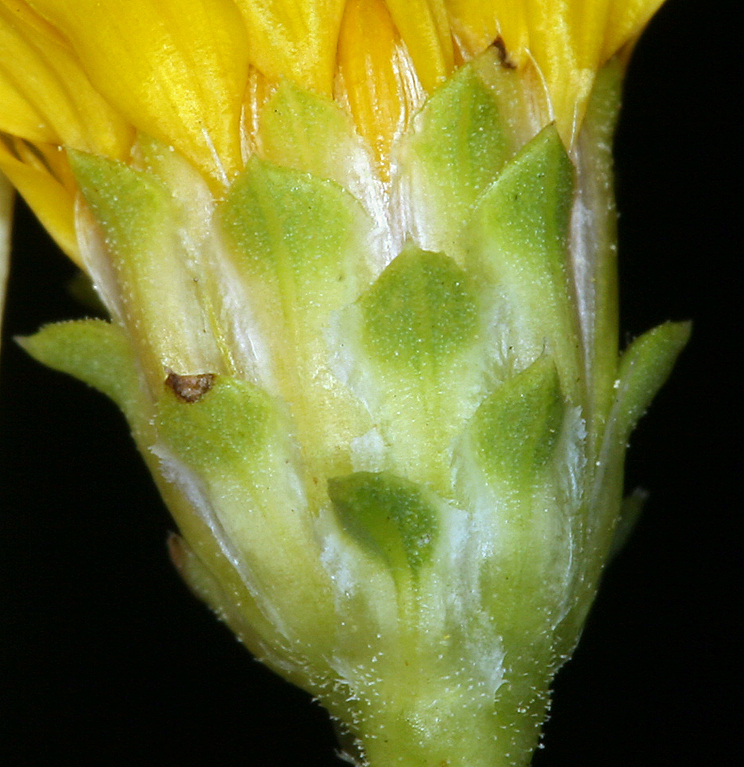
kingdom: Plantae
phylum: Tracheophyta
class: Magnoliopsida
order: Asterales
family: Asteraceae
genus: Pyrrocoma
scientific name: Pyrrocoma racemosa
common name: Clustered goldenweed
